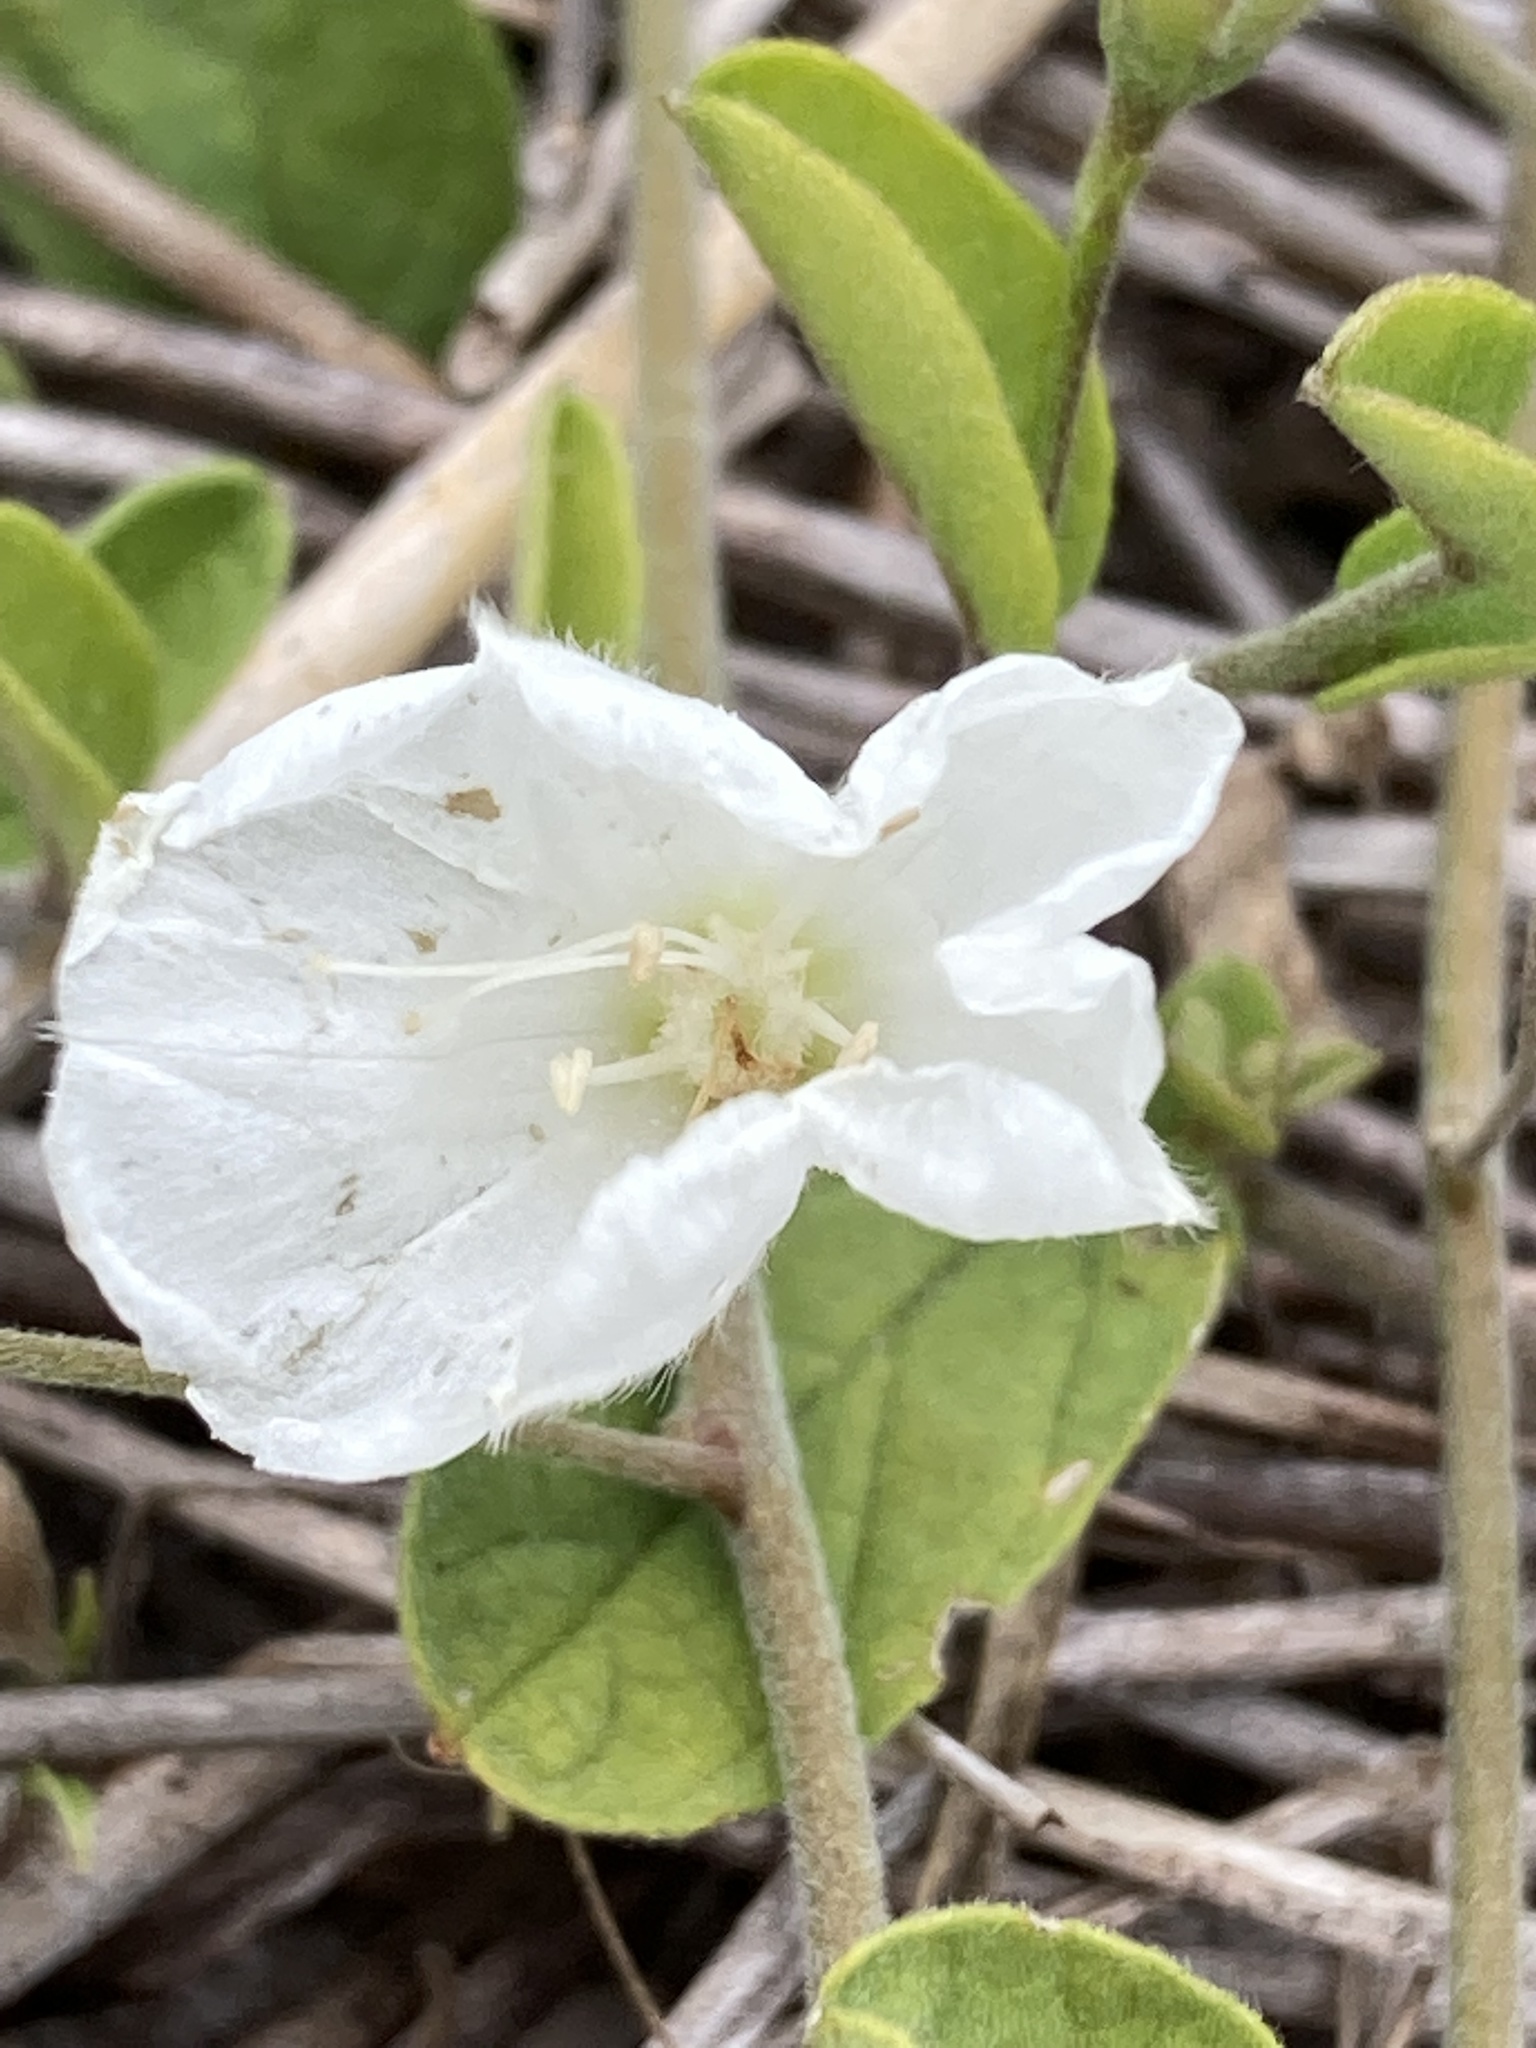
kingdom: Plantae
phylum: Tracheophyta
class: Magnoliopsida
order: Solanales
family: Convolvulaceae
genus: Stylisma
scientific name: Stylisma villosa
